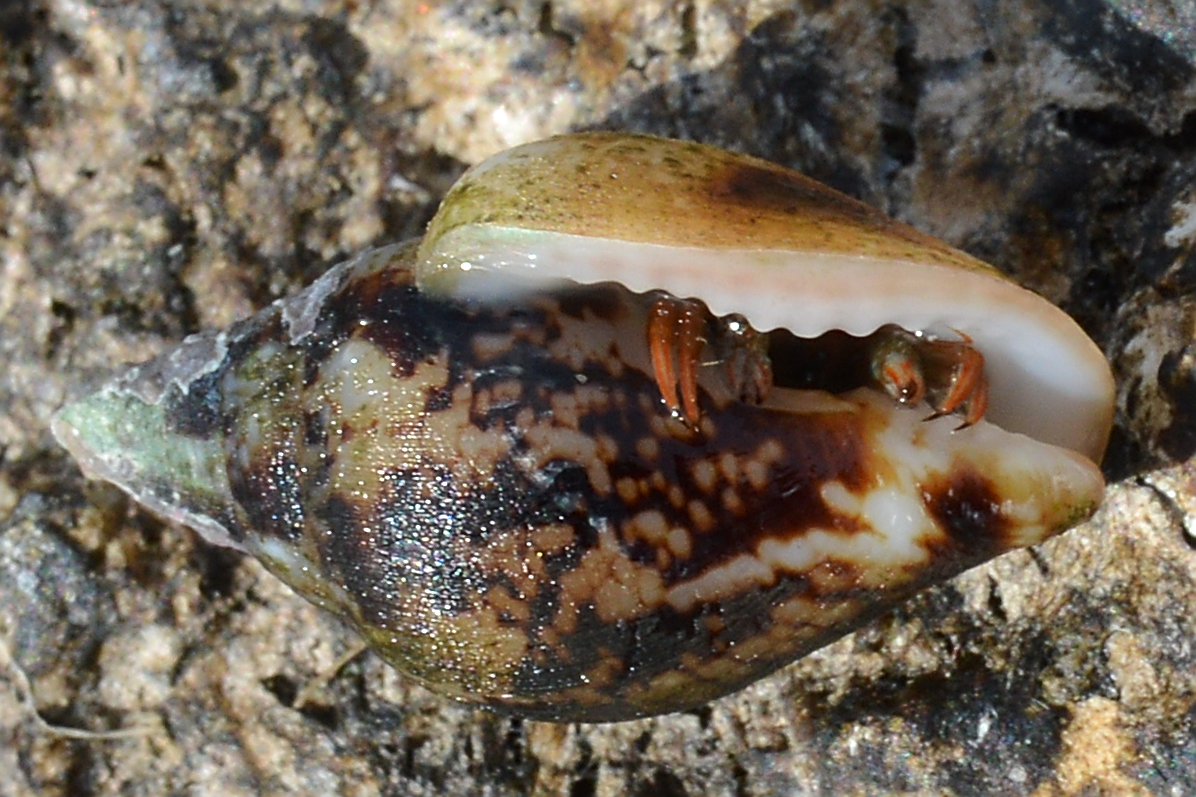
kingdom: Animalia
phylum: Arthropoda
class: Malacostraca
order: Decapoda
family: Diogenidae
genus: Clibanarius
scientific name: Clibanarius erythropus
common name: Hermit crab
